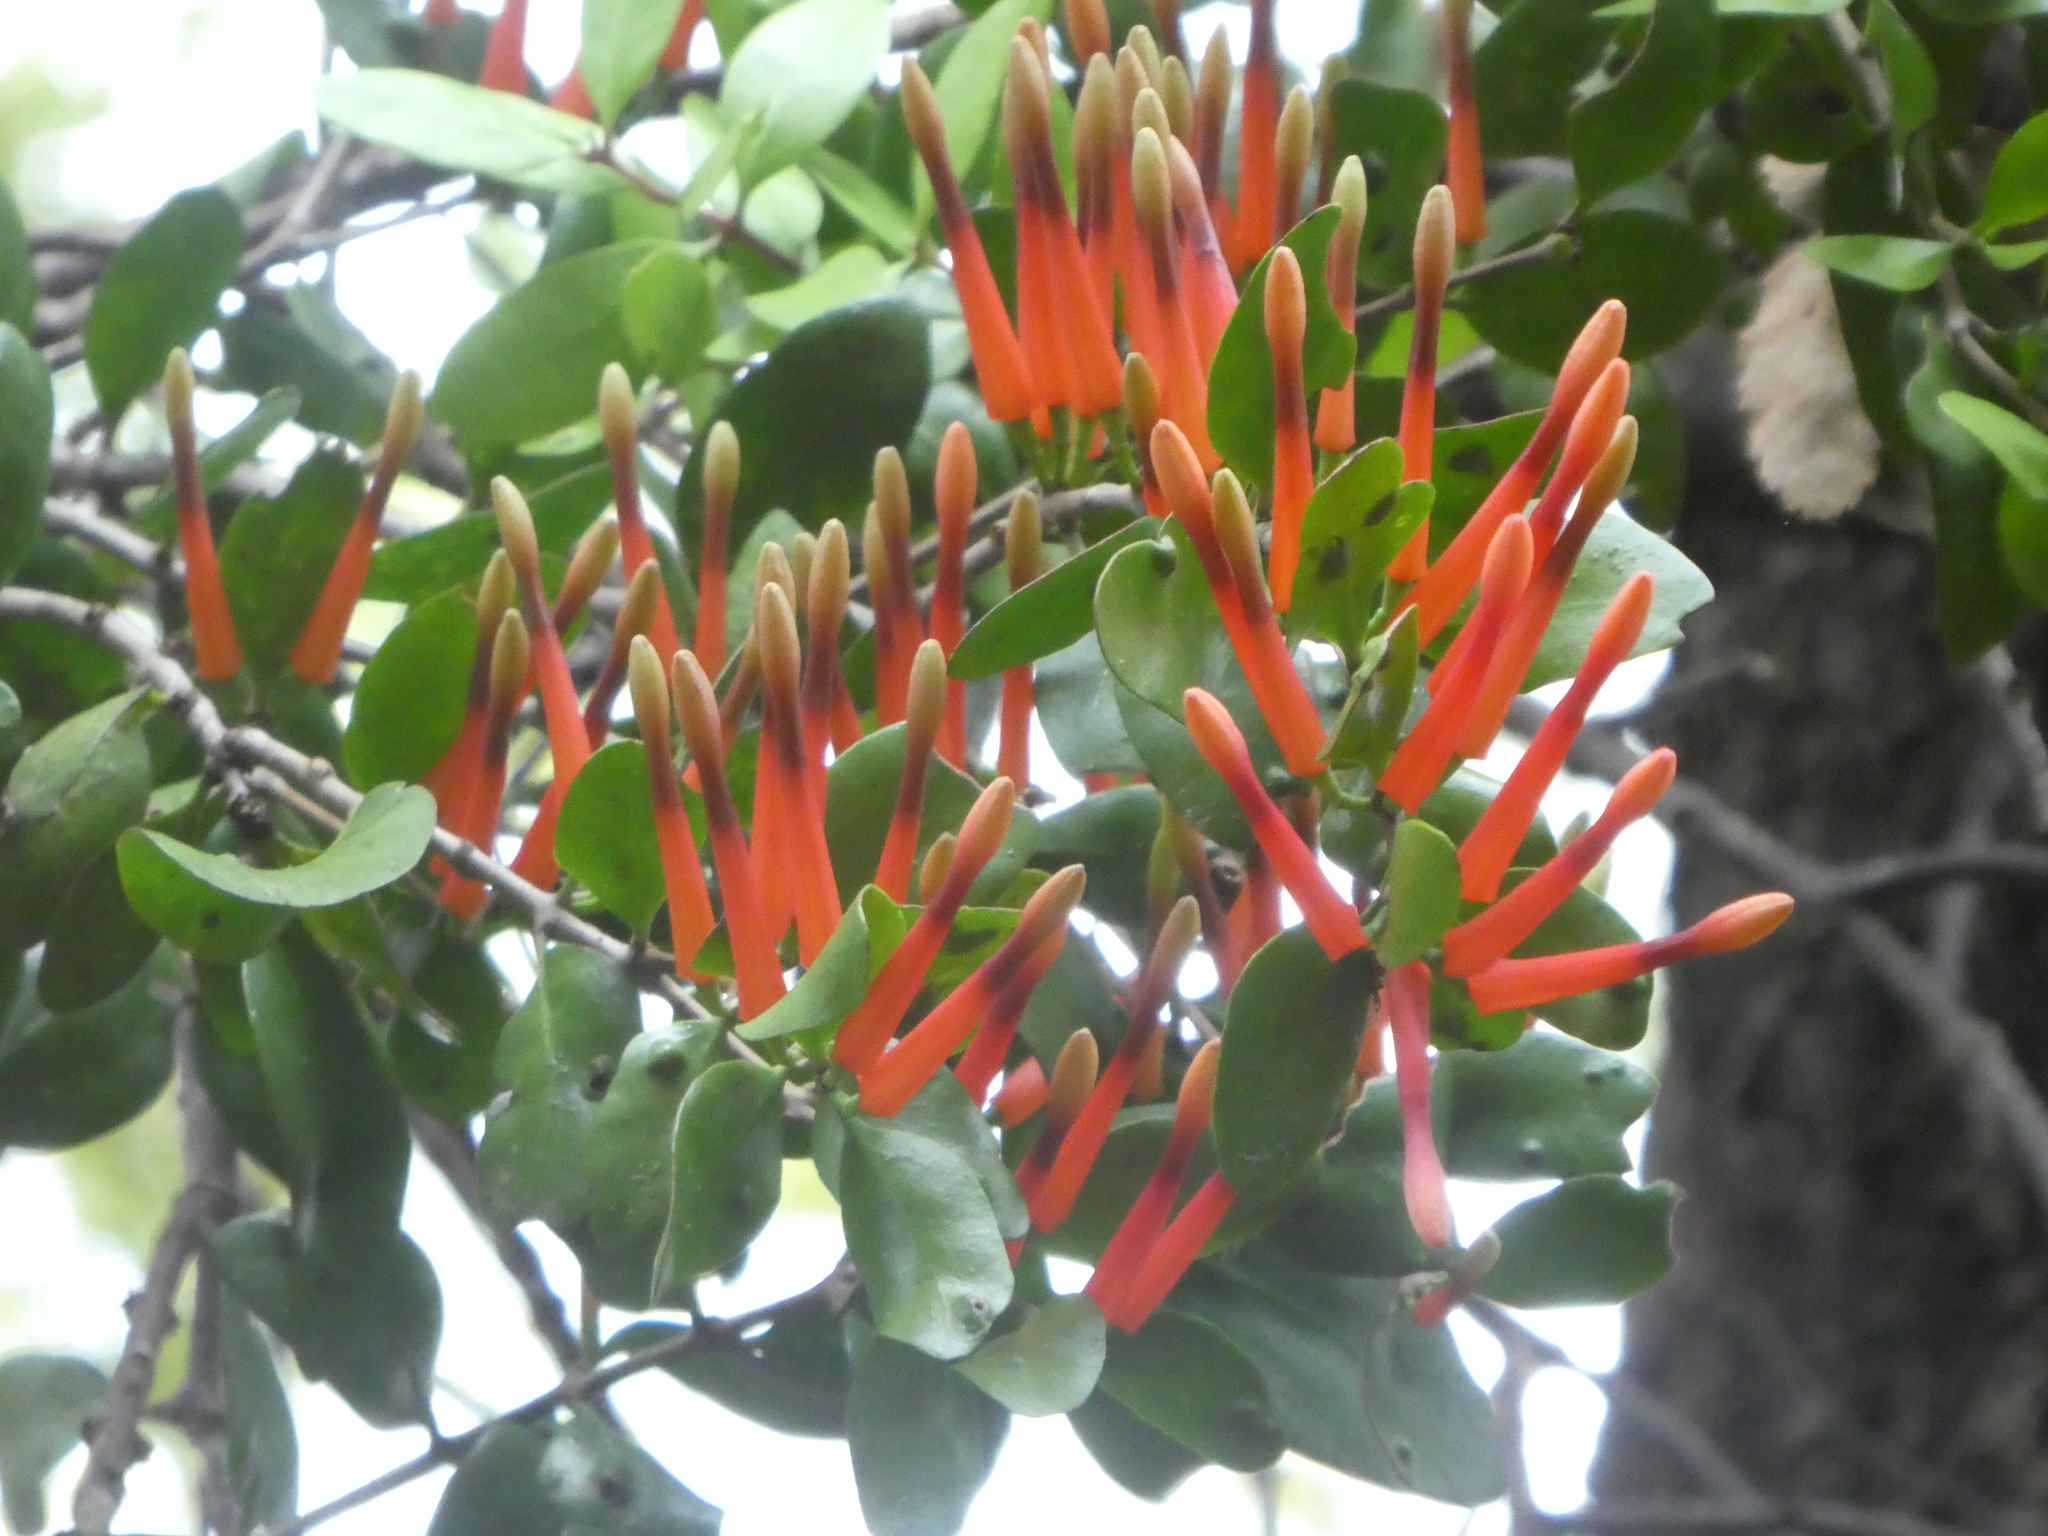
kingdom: Plantae
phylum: Tracheophyta
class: Magnoliopsida
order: Santalales
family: Loranthaceae
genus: Peraxilla
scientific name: Peraxilla tetrapetala
